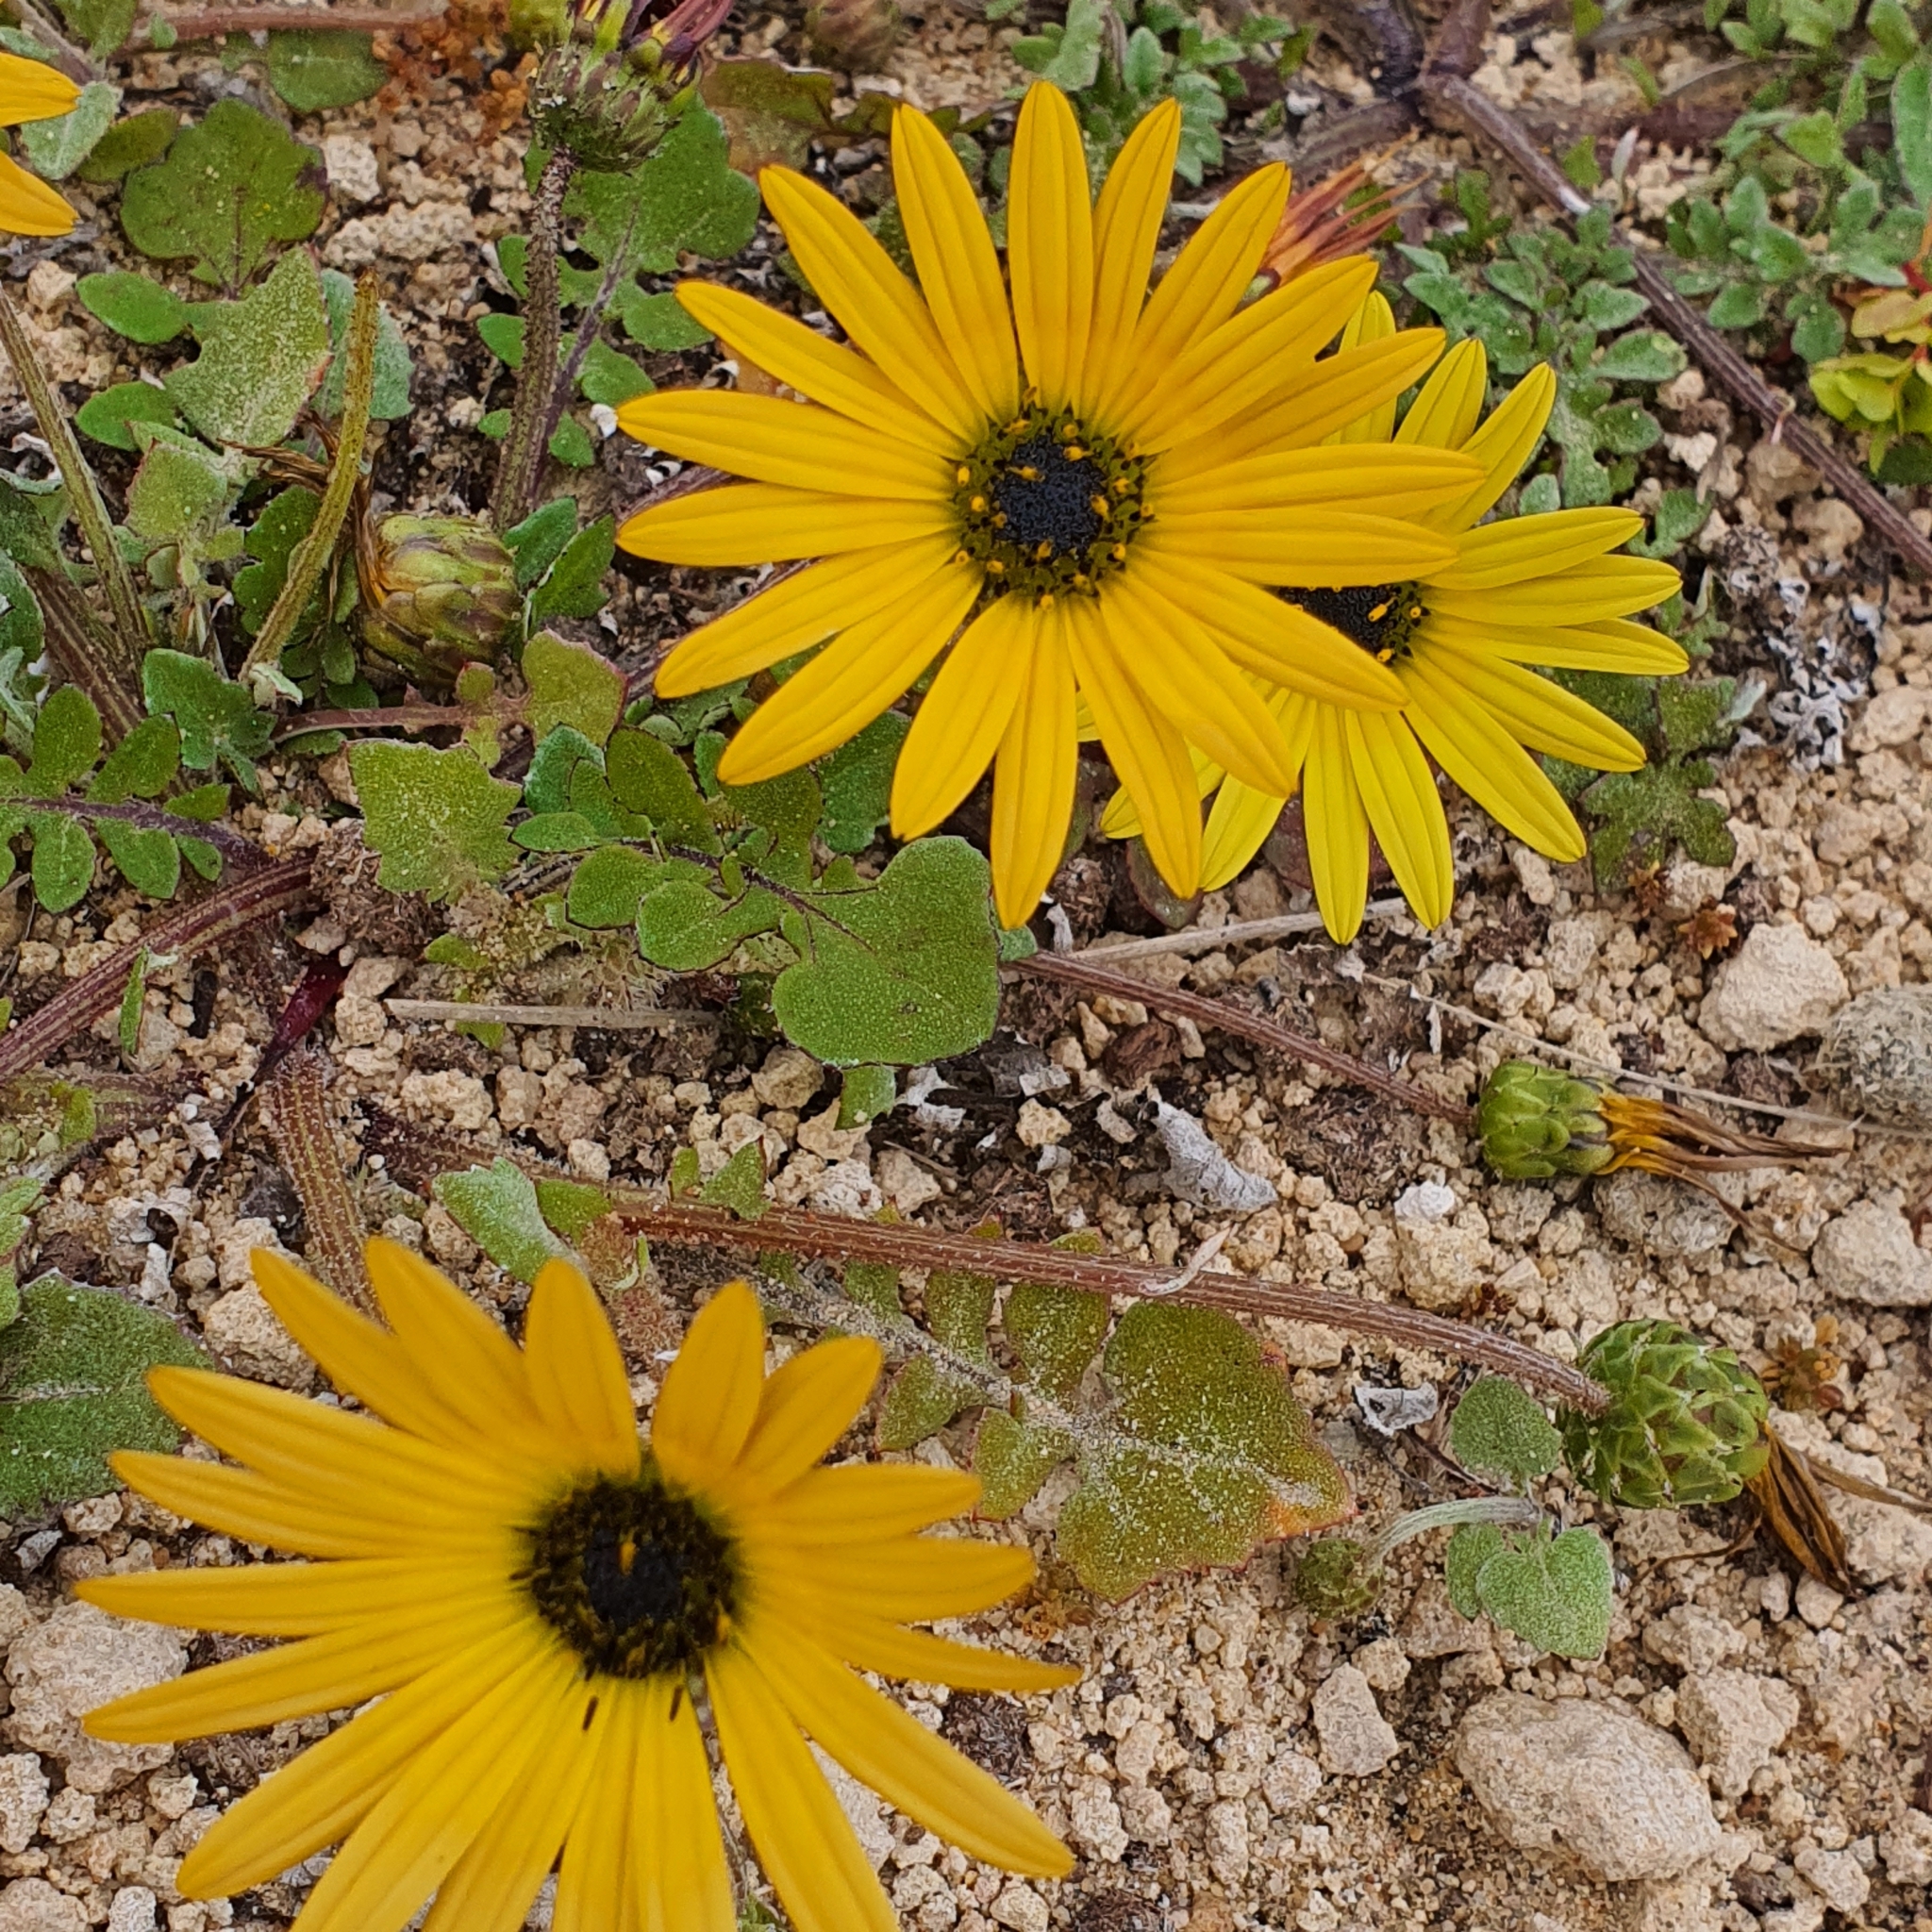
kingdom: Plantae
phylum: Tracheophyta
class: Magnoliopsida
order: Asterales
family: Asteraceae
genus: Arctotheca
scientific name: Arctotheca calendula
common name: Capeweed
